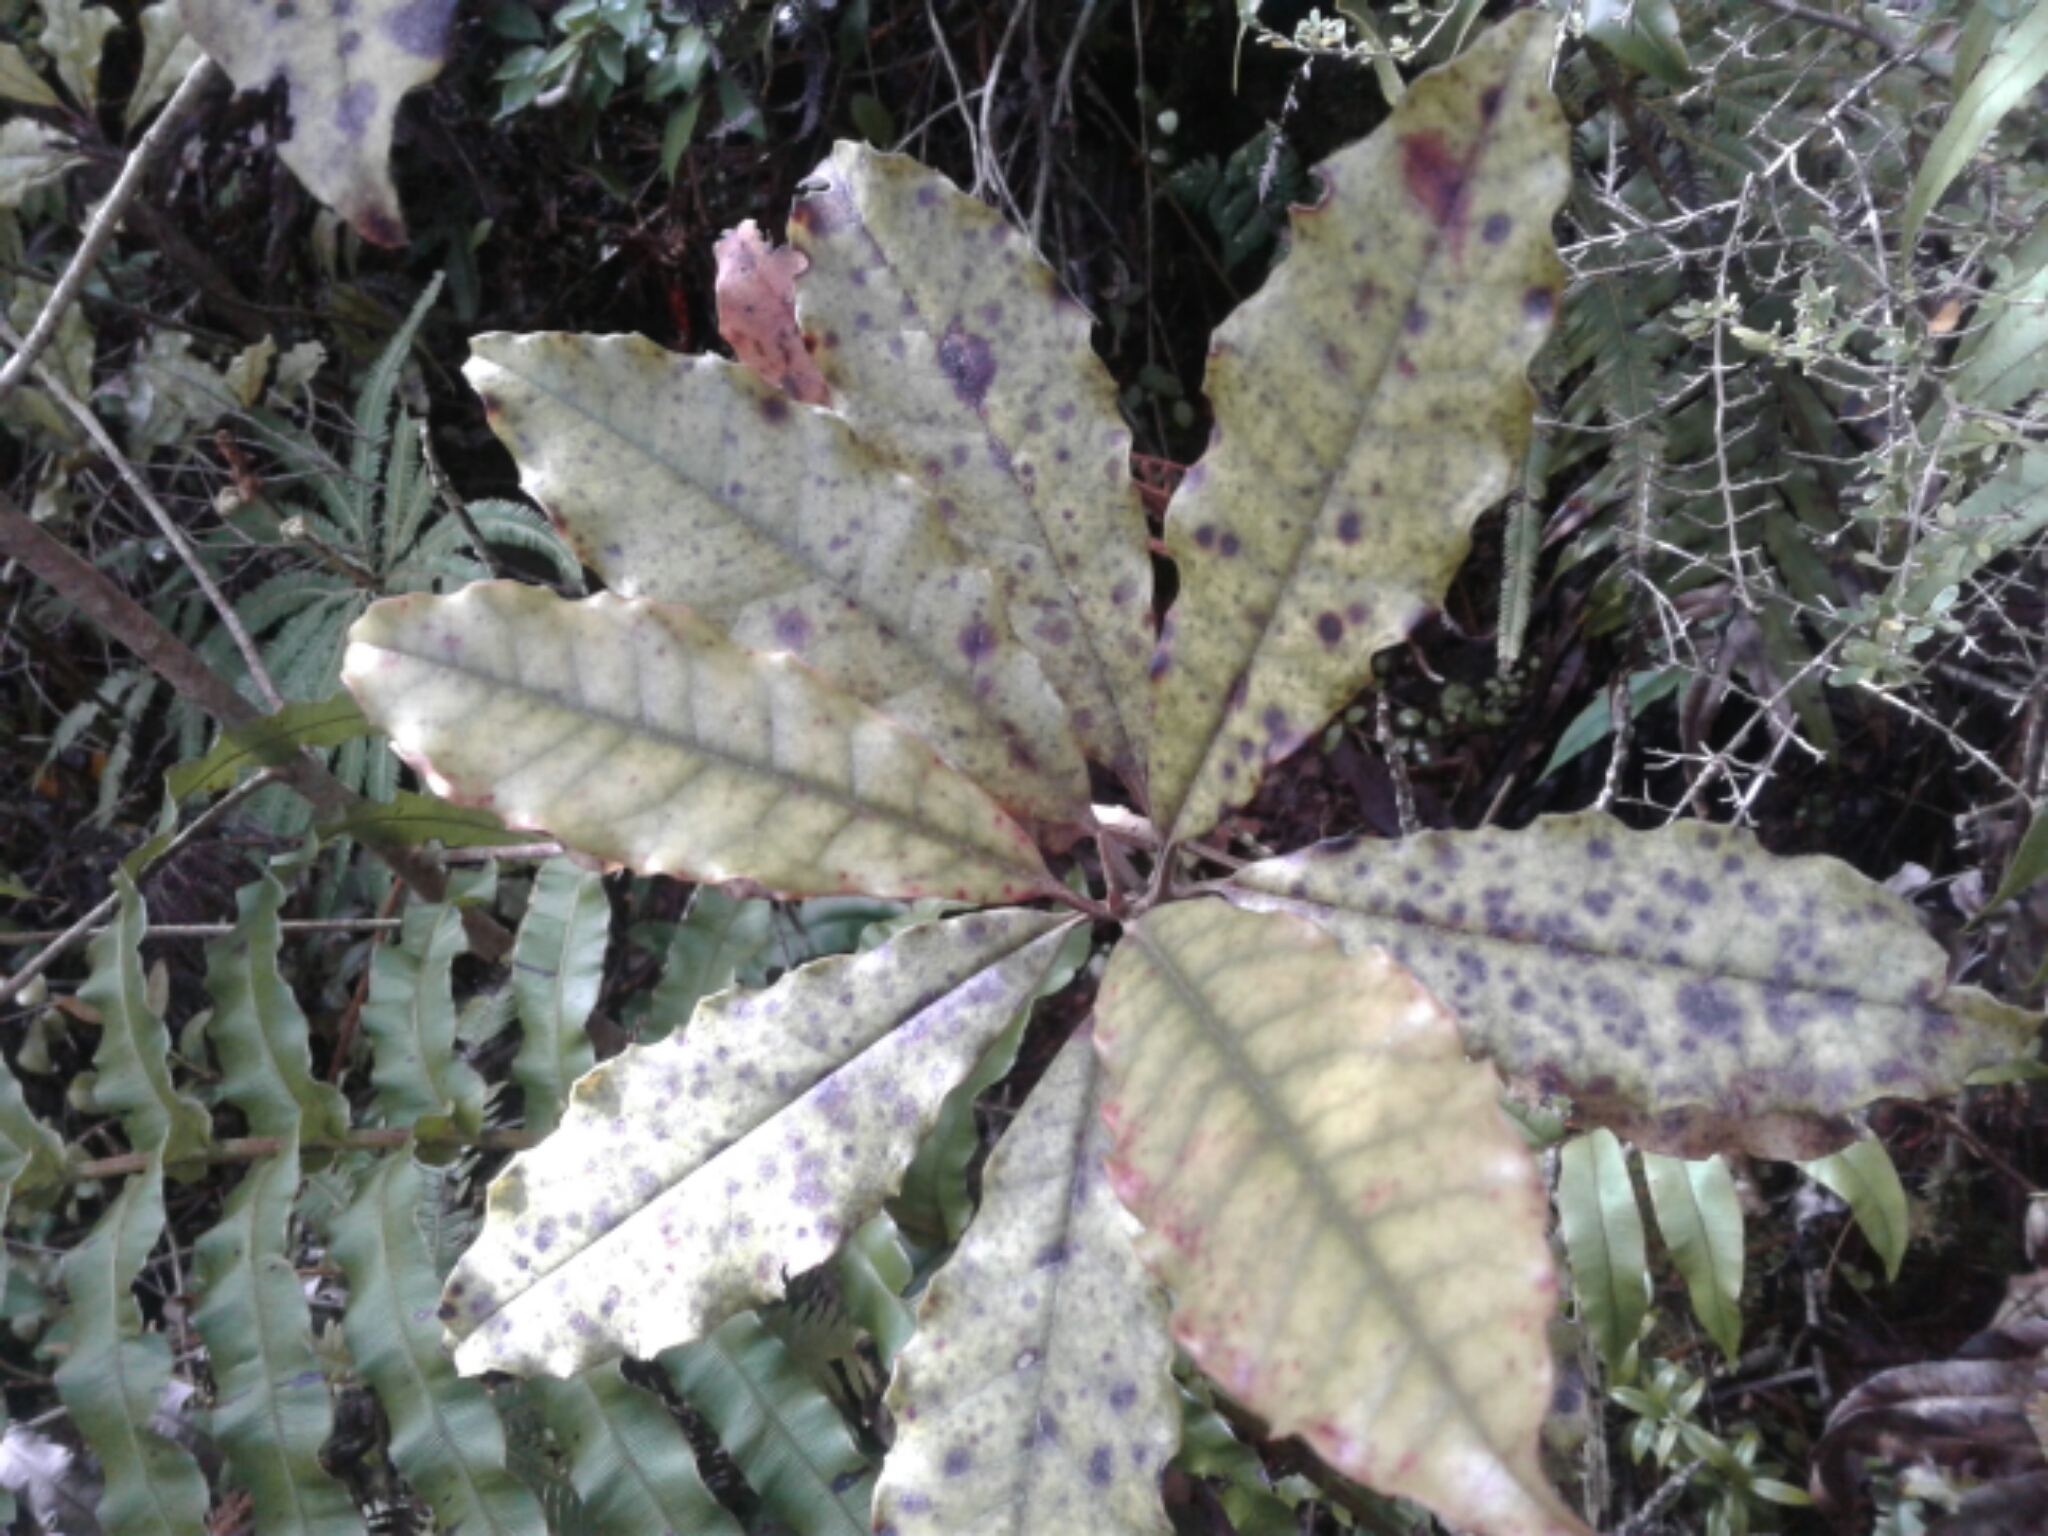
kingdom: Plantae
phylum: Tracheophyta
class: Magnoliopsida
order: Paracryphiales
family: Paracryphiaceae
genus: Quintinia
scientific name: Quintinia serrata
